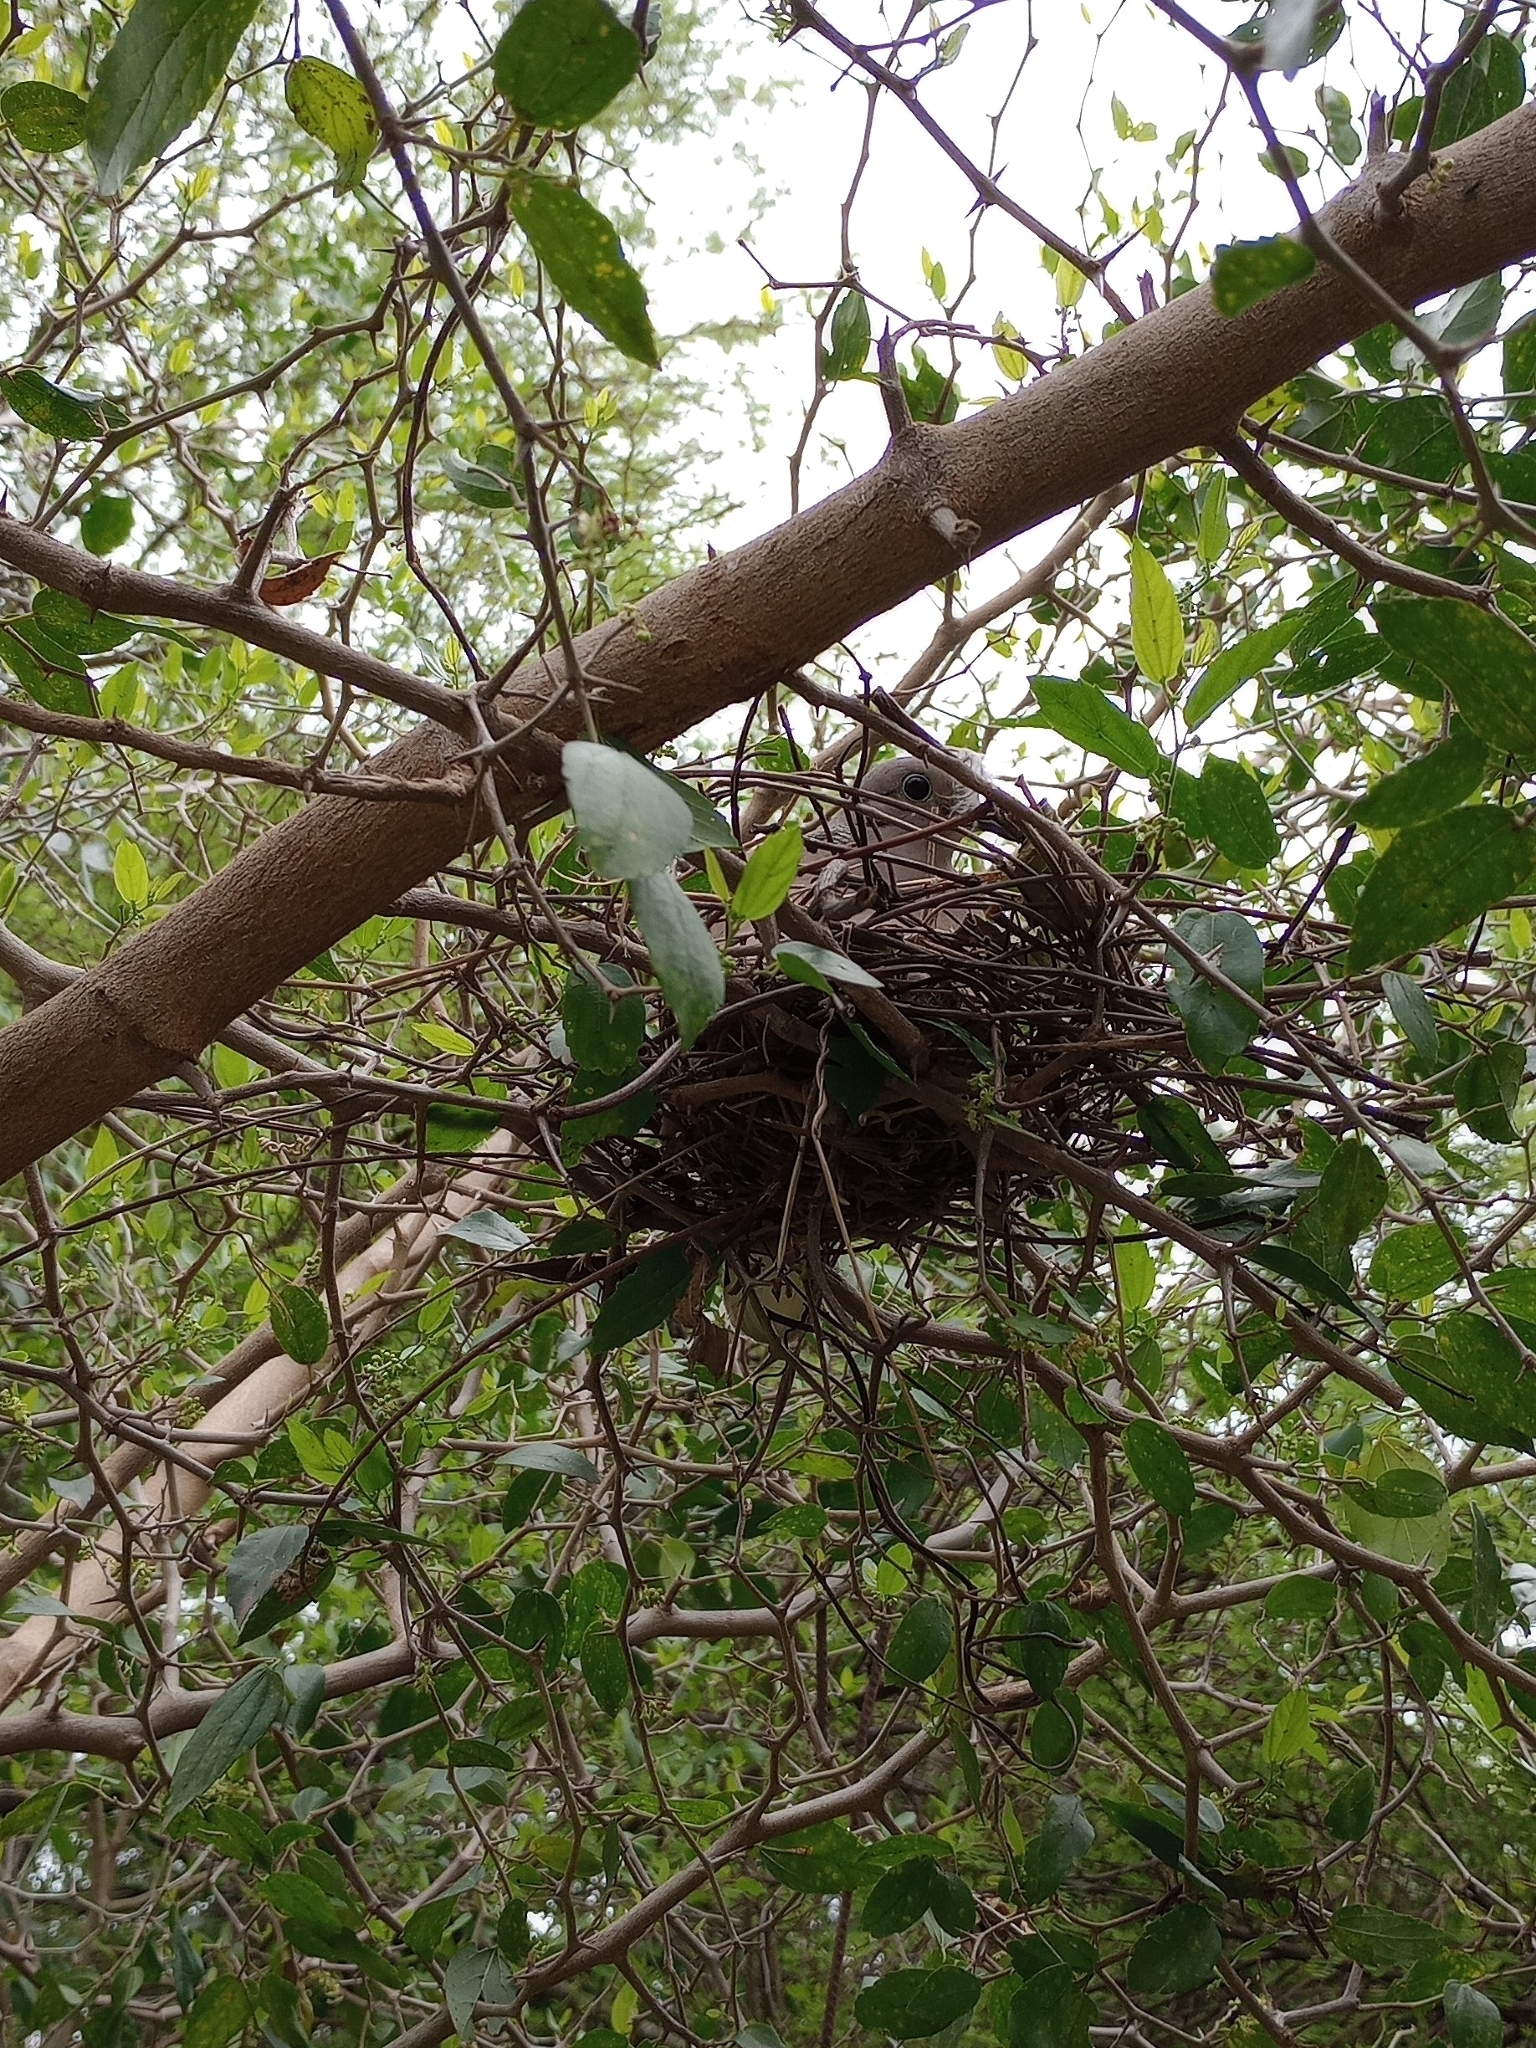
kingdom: Animalia
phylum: Chordata
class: Aves
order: Columbiformes
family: Columbidae
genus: Zenaida
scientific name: Zenaida auriculata
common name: Eared dove
